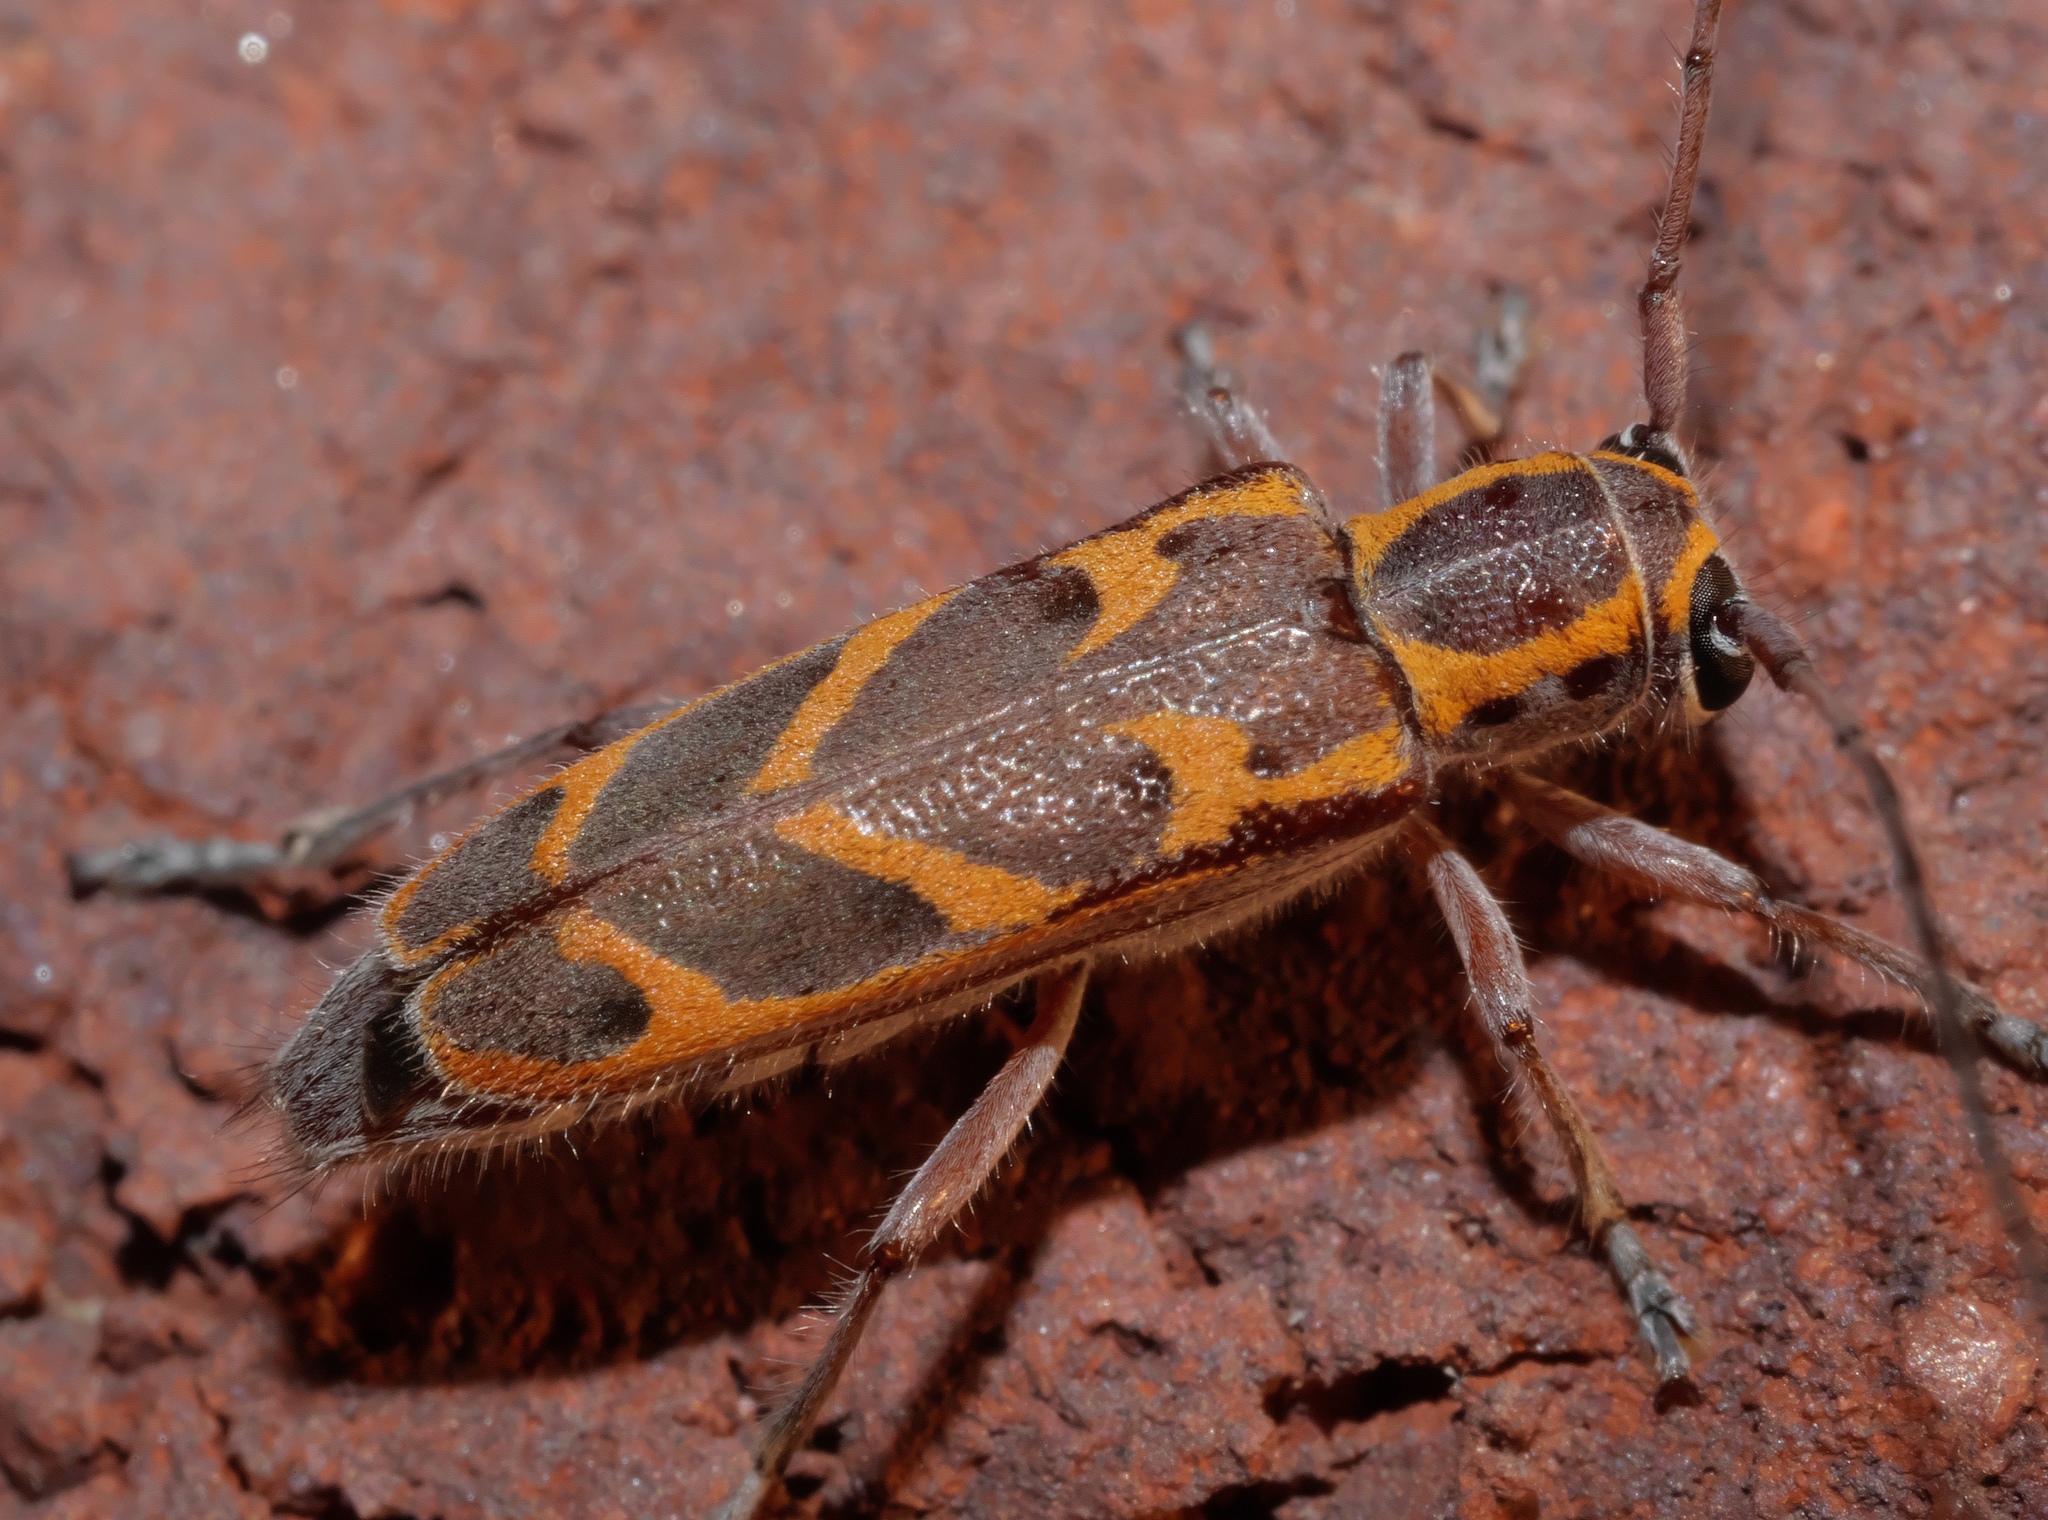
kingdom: Animalia
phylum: Arthropoda
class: Insecta
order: Coleoptera
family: Cerambycidae
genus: Saperda
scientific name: Saperda tridentata
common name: Elm borer
